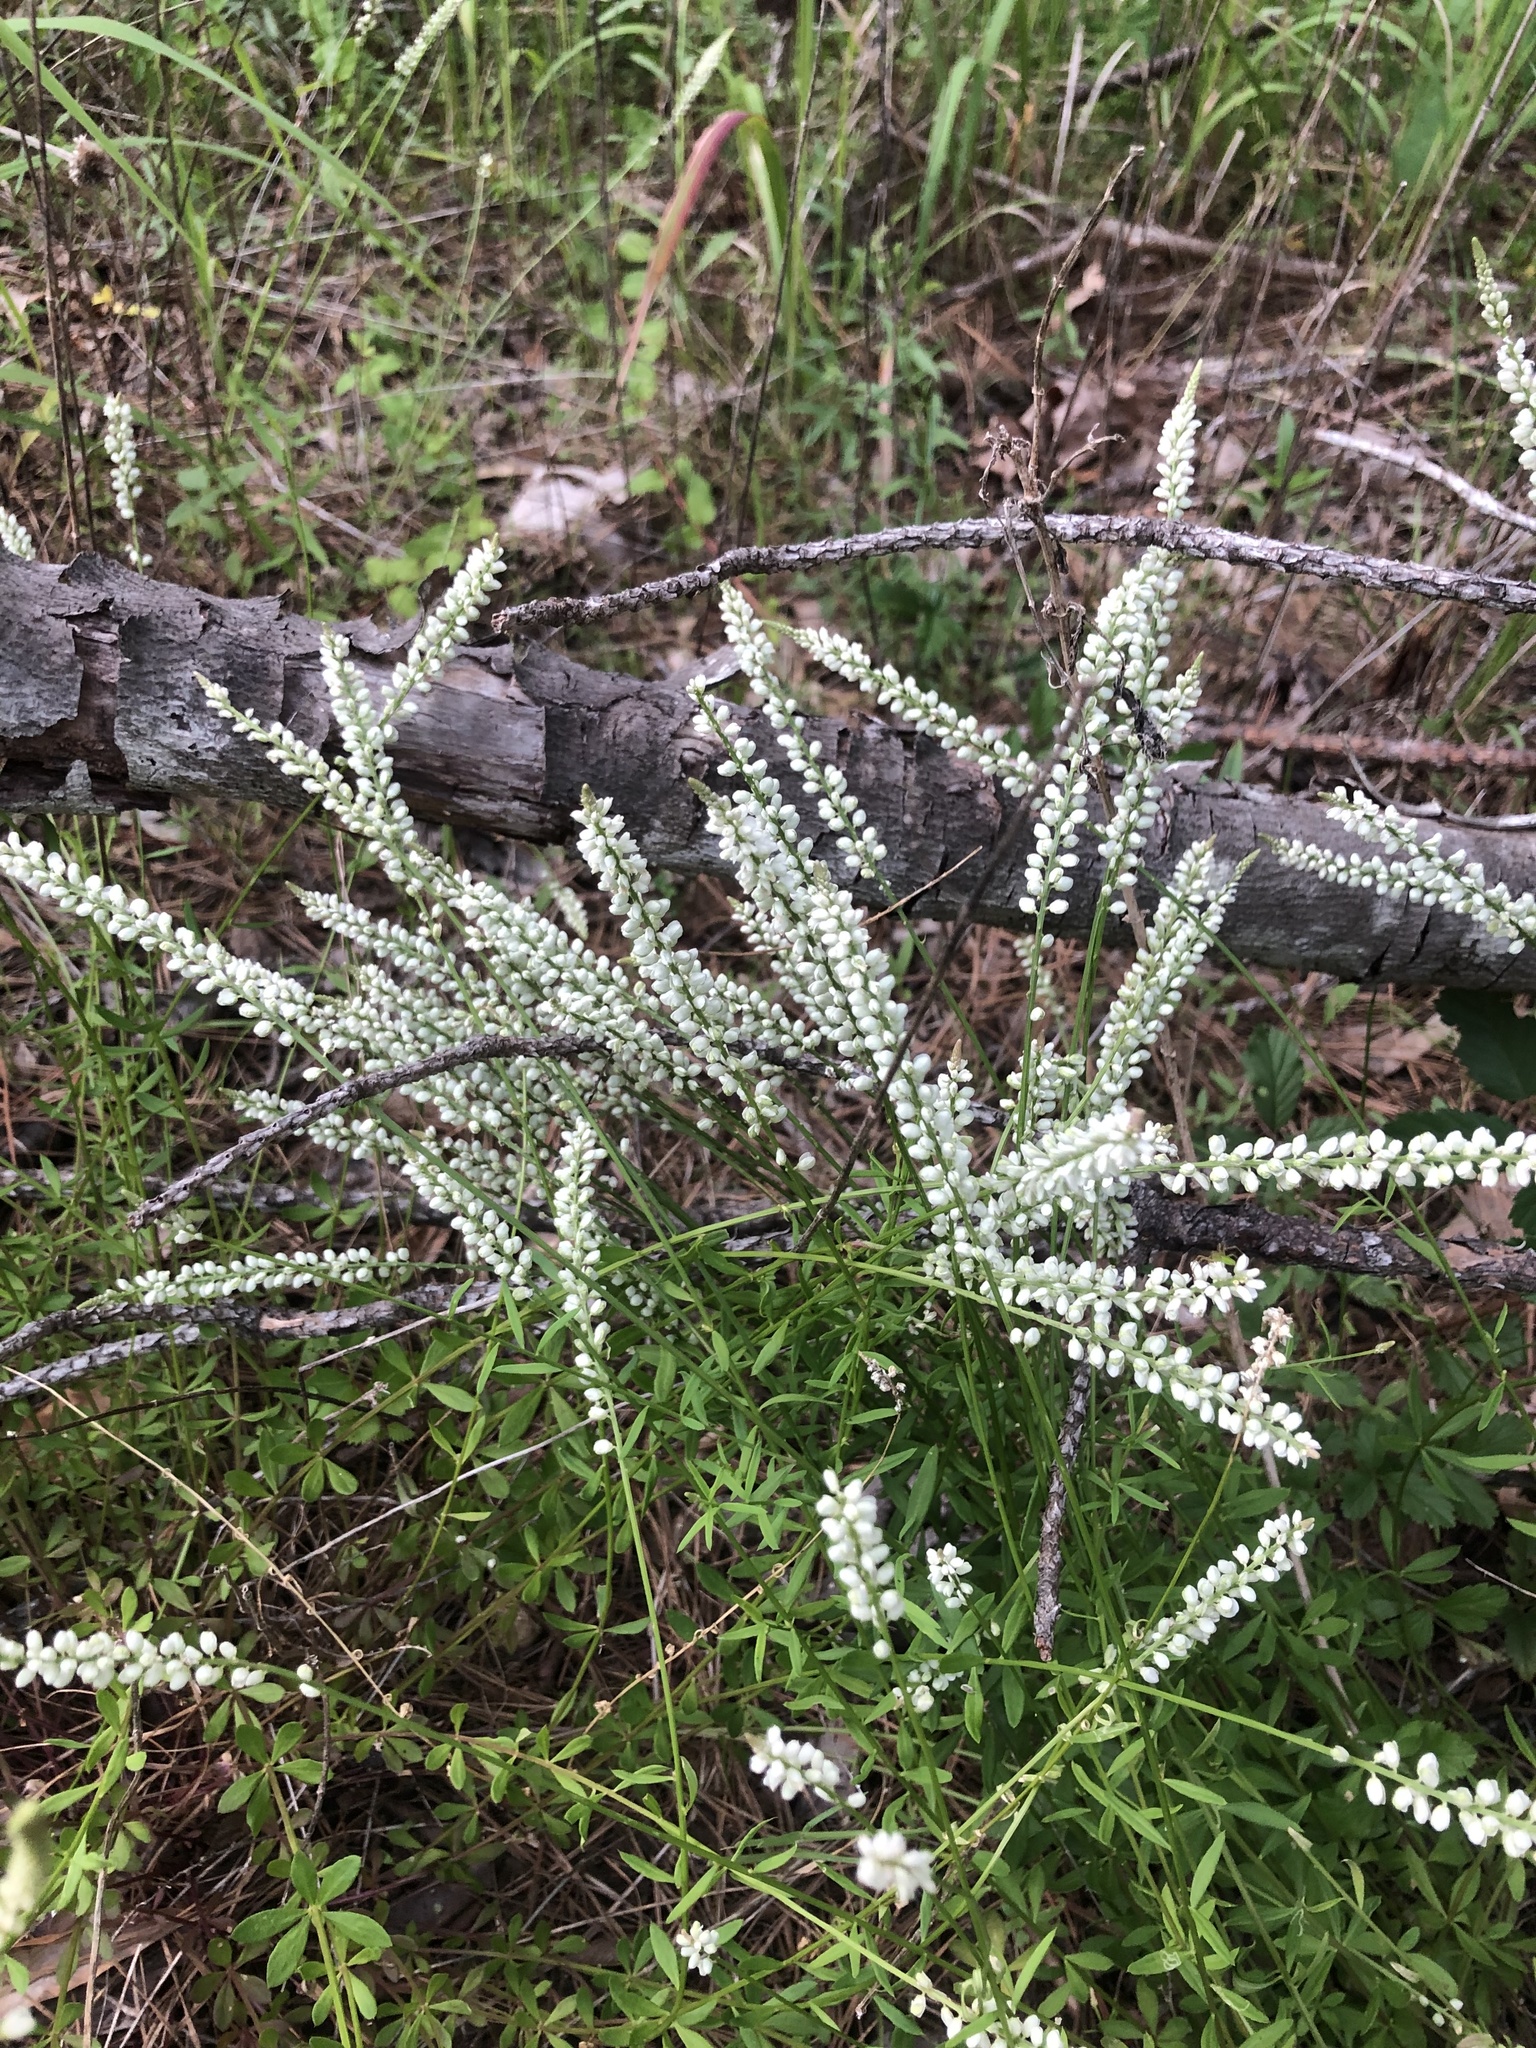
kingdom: Plantae
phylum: Tracheophyta
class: Magnoliopsida
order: Fabales
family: Polygalaceae
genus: Polygala
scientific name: Polygala boykinii
